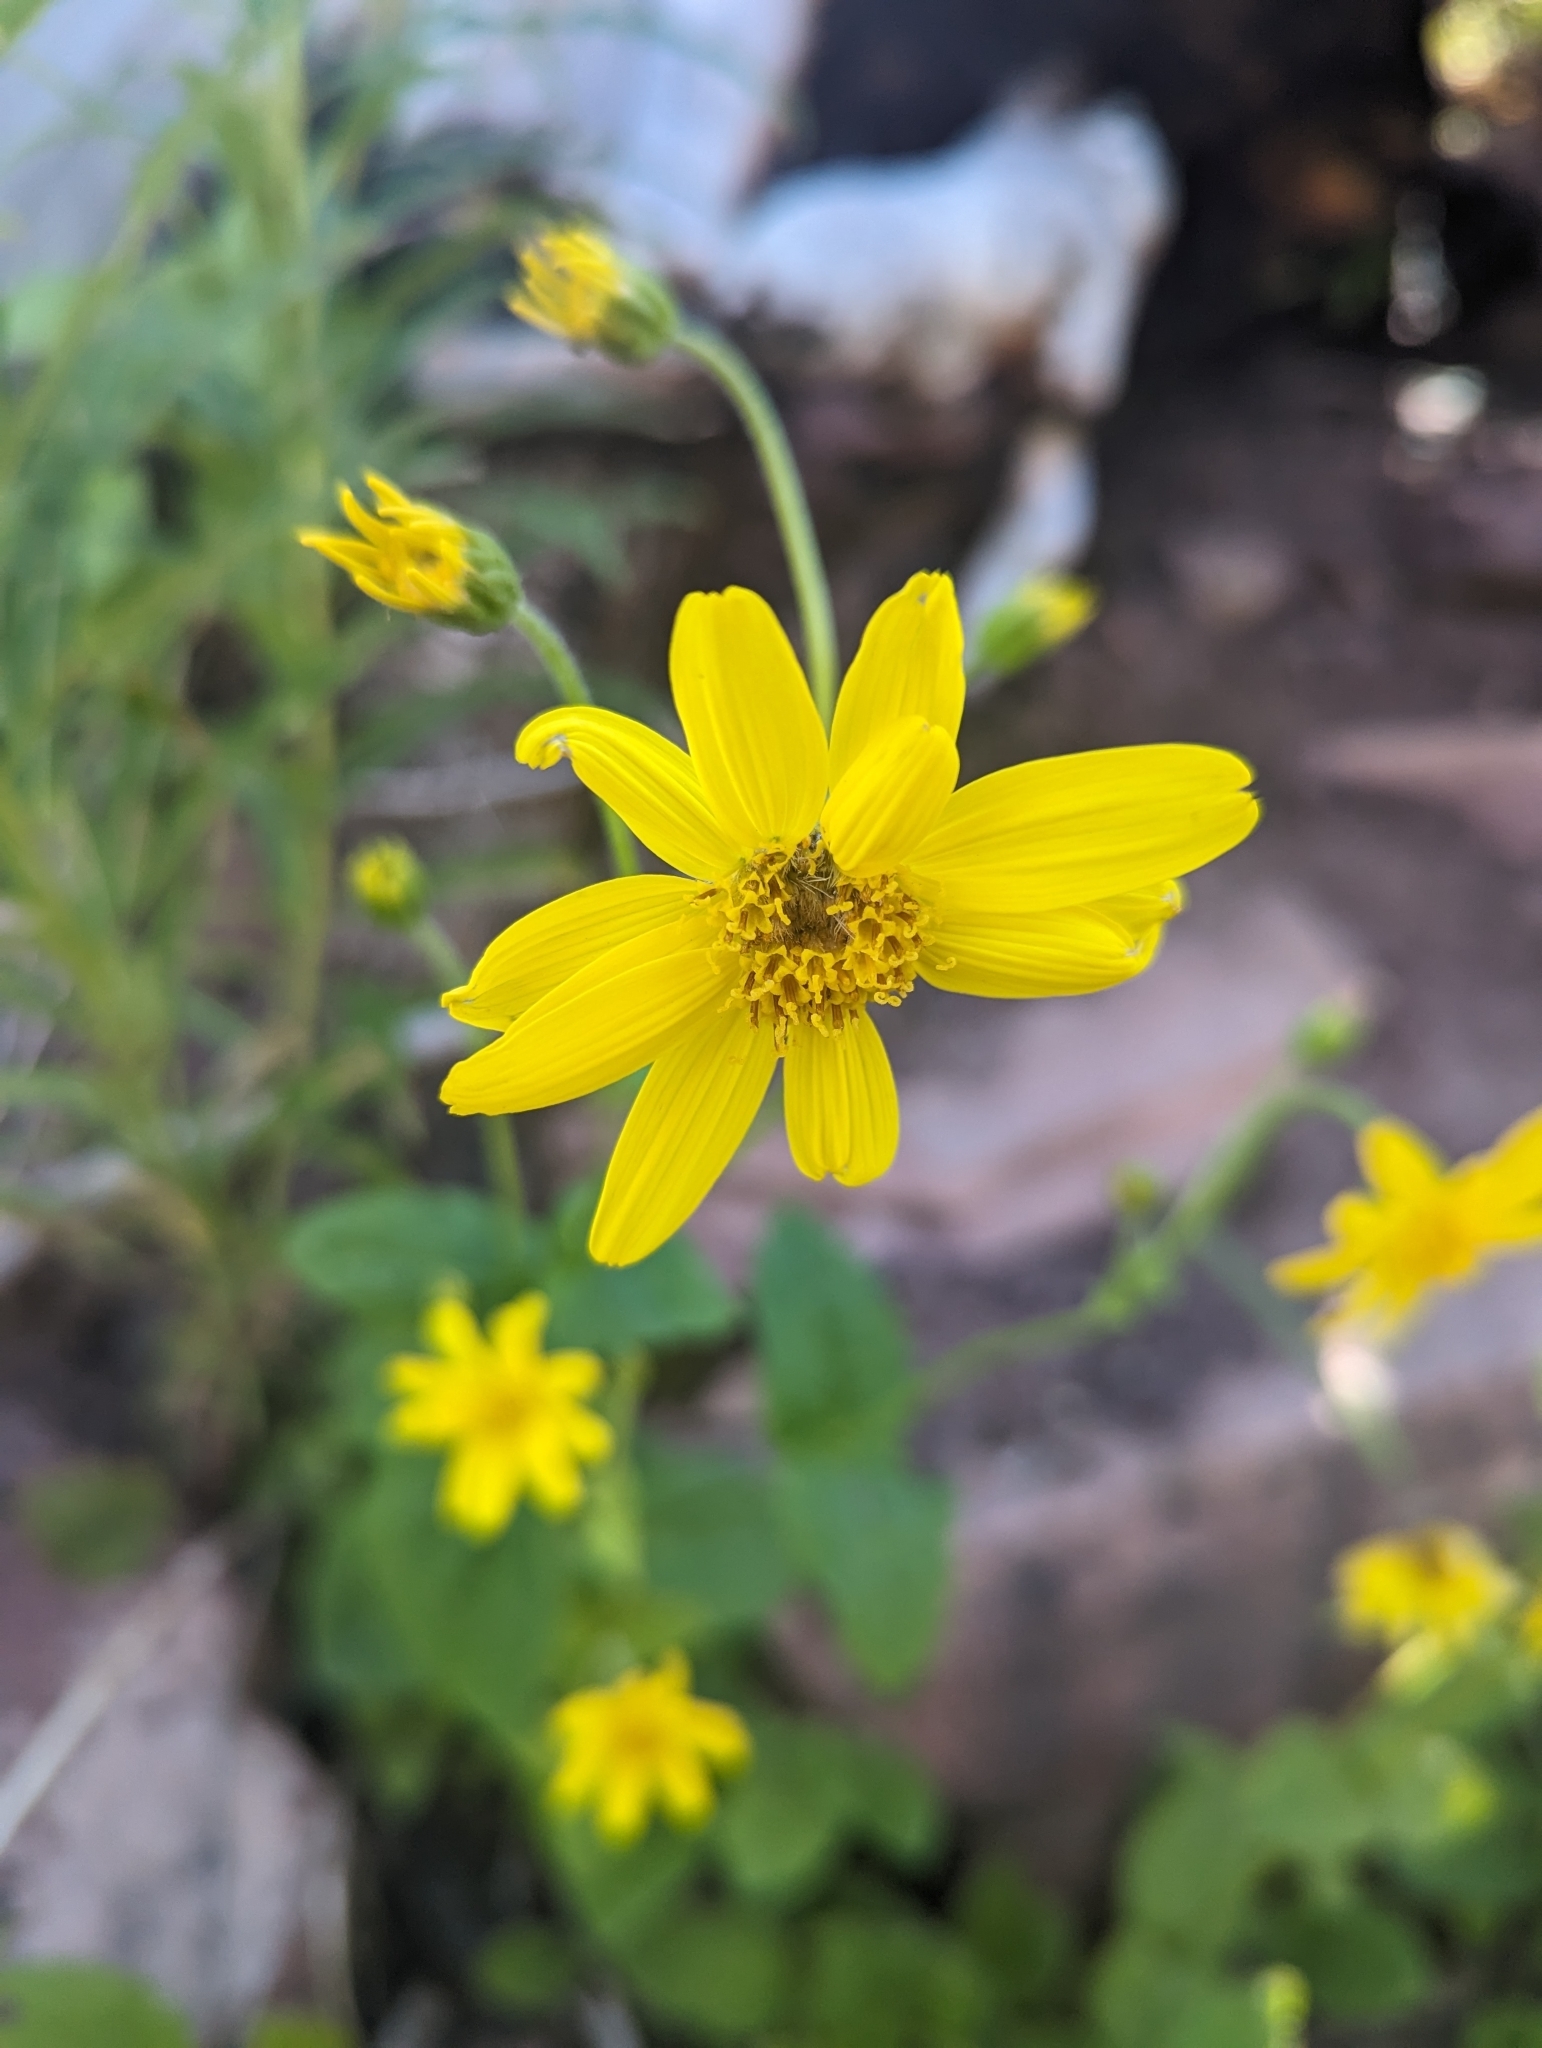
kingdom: Plantae
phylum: Tracheophyta
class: Magnoliopsida
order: Asterales
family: Asteraceae
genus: Arnica
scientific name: Arnica latifolia
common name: Arnica
